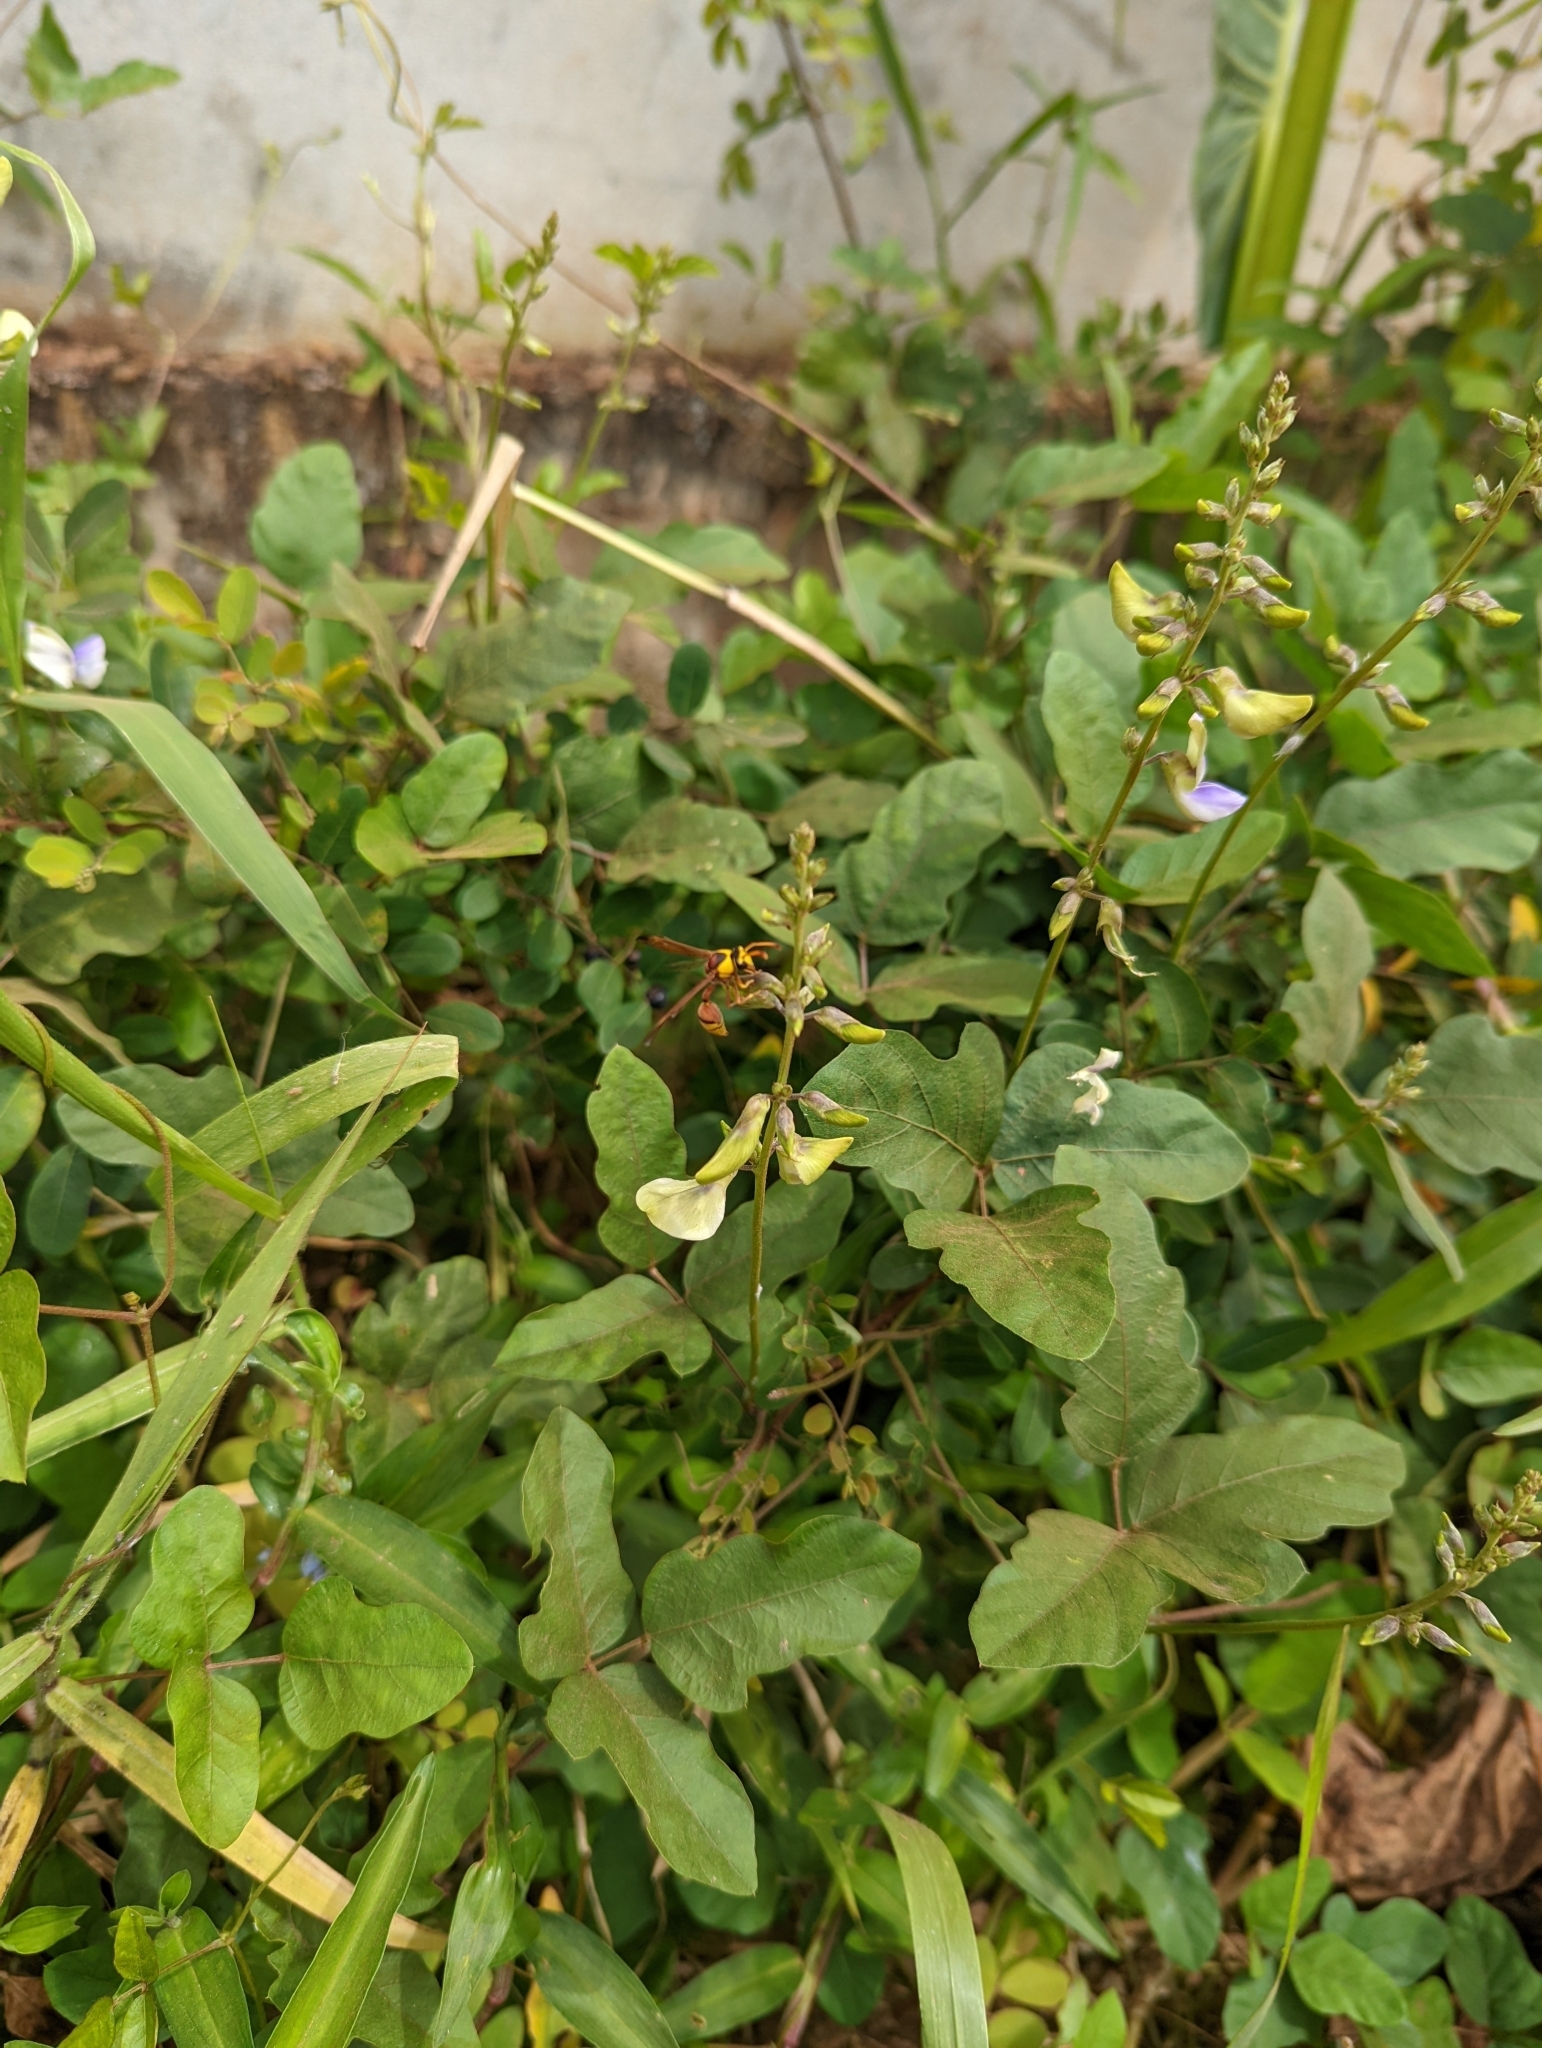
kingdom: Animalia
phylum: Arthropoda
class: Insecta
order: Hymenoptera
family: Eumenidae
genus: Delta
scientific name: Delta esuriens
